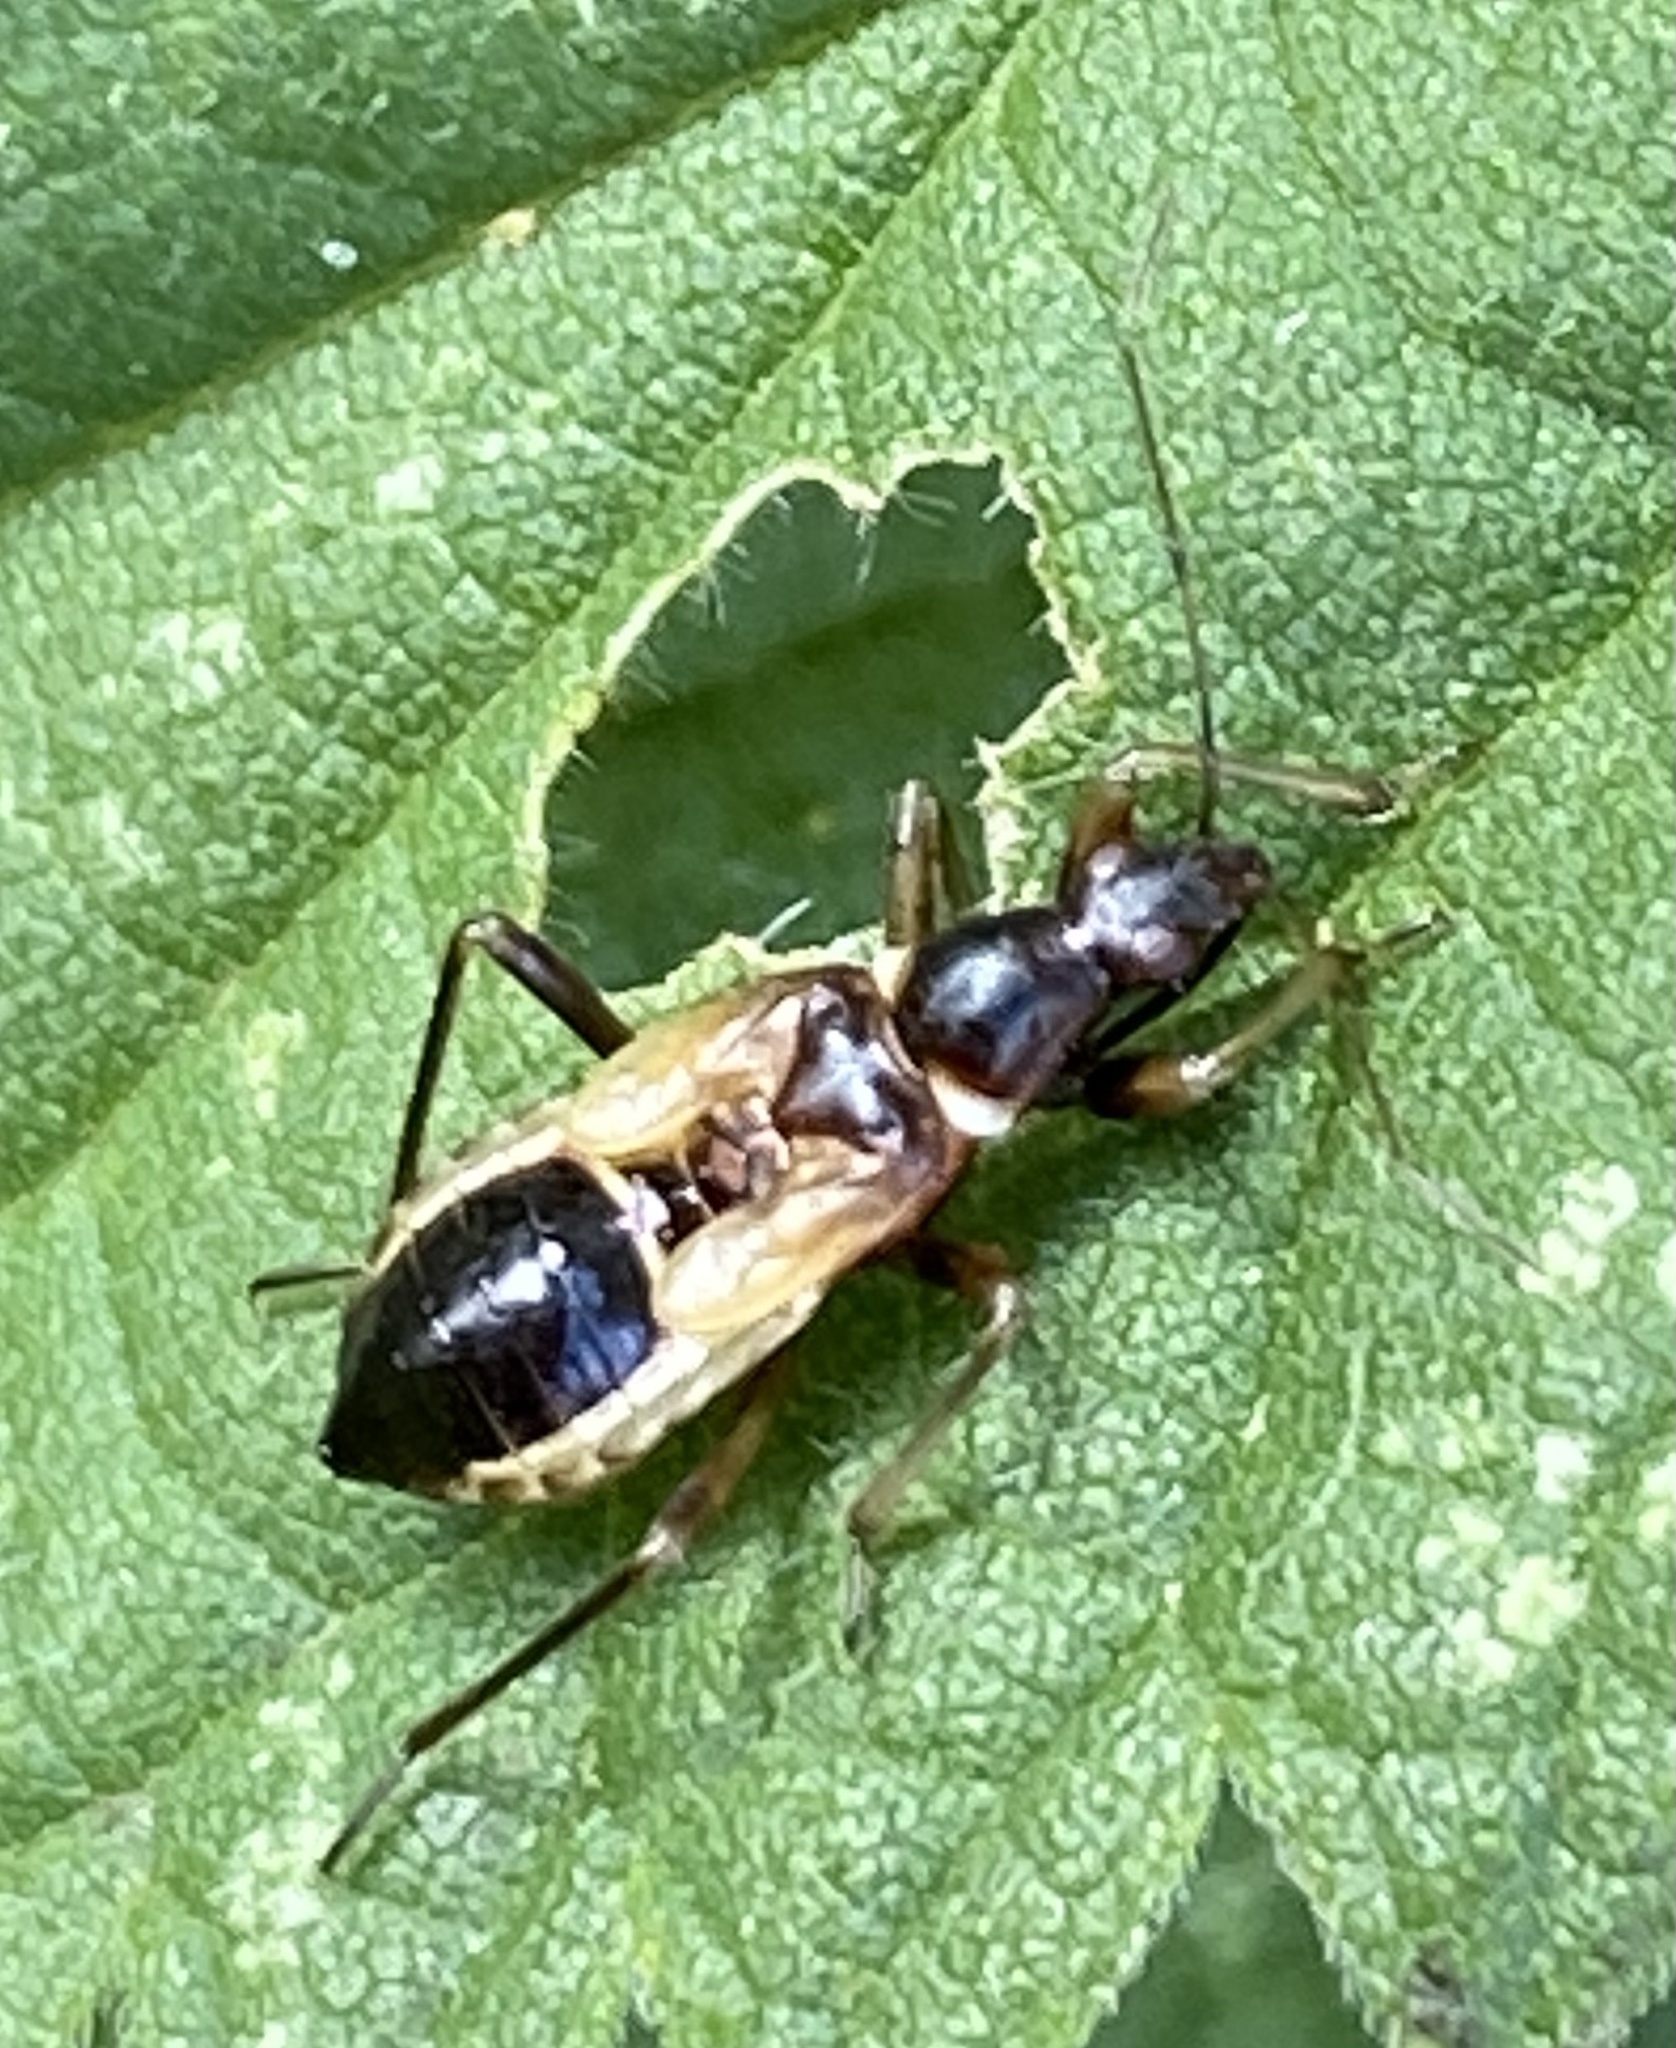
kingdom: Animalia
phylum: Arthropoda
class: Insecta
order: Hemiptera
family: Nabidae
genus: Himacerus
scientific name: Himacerus mirmicoides
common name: Ant damsel bug
